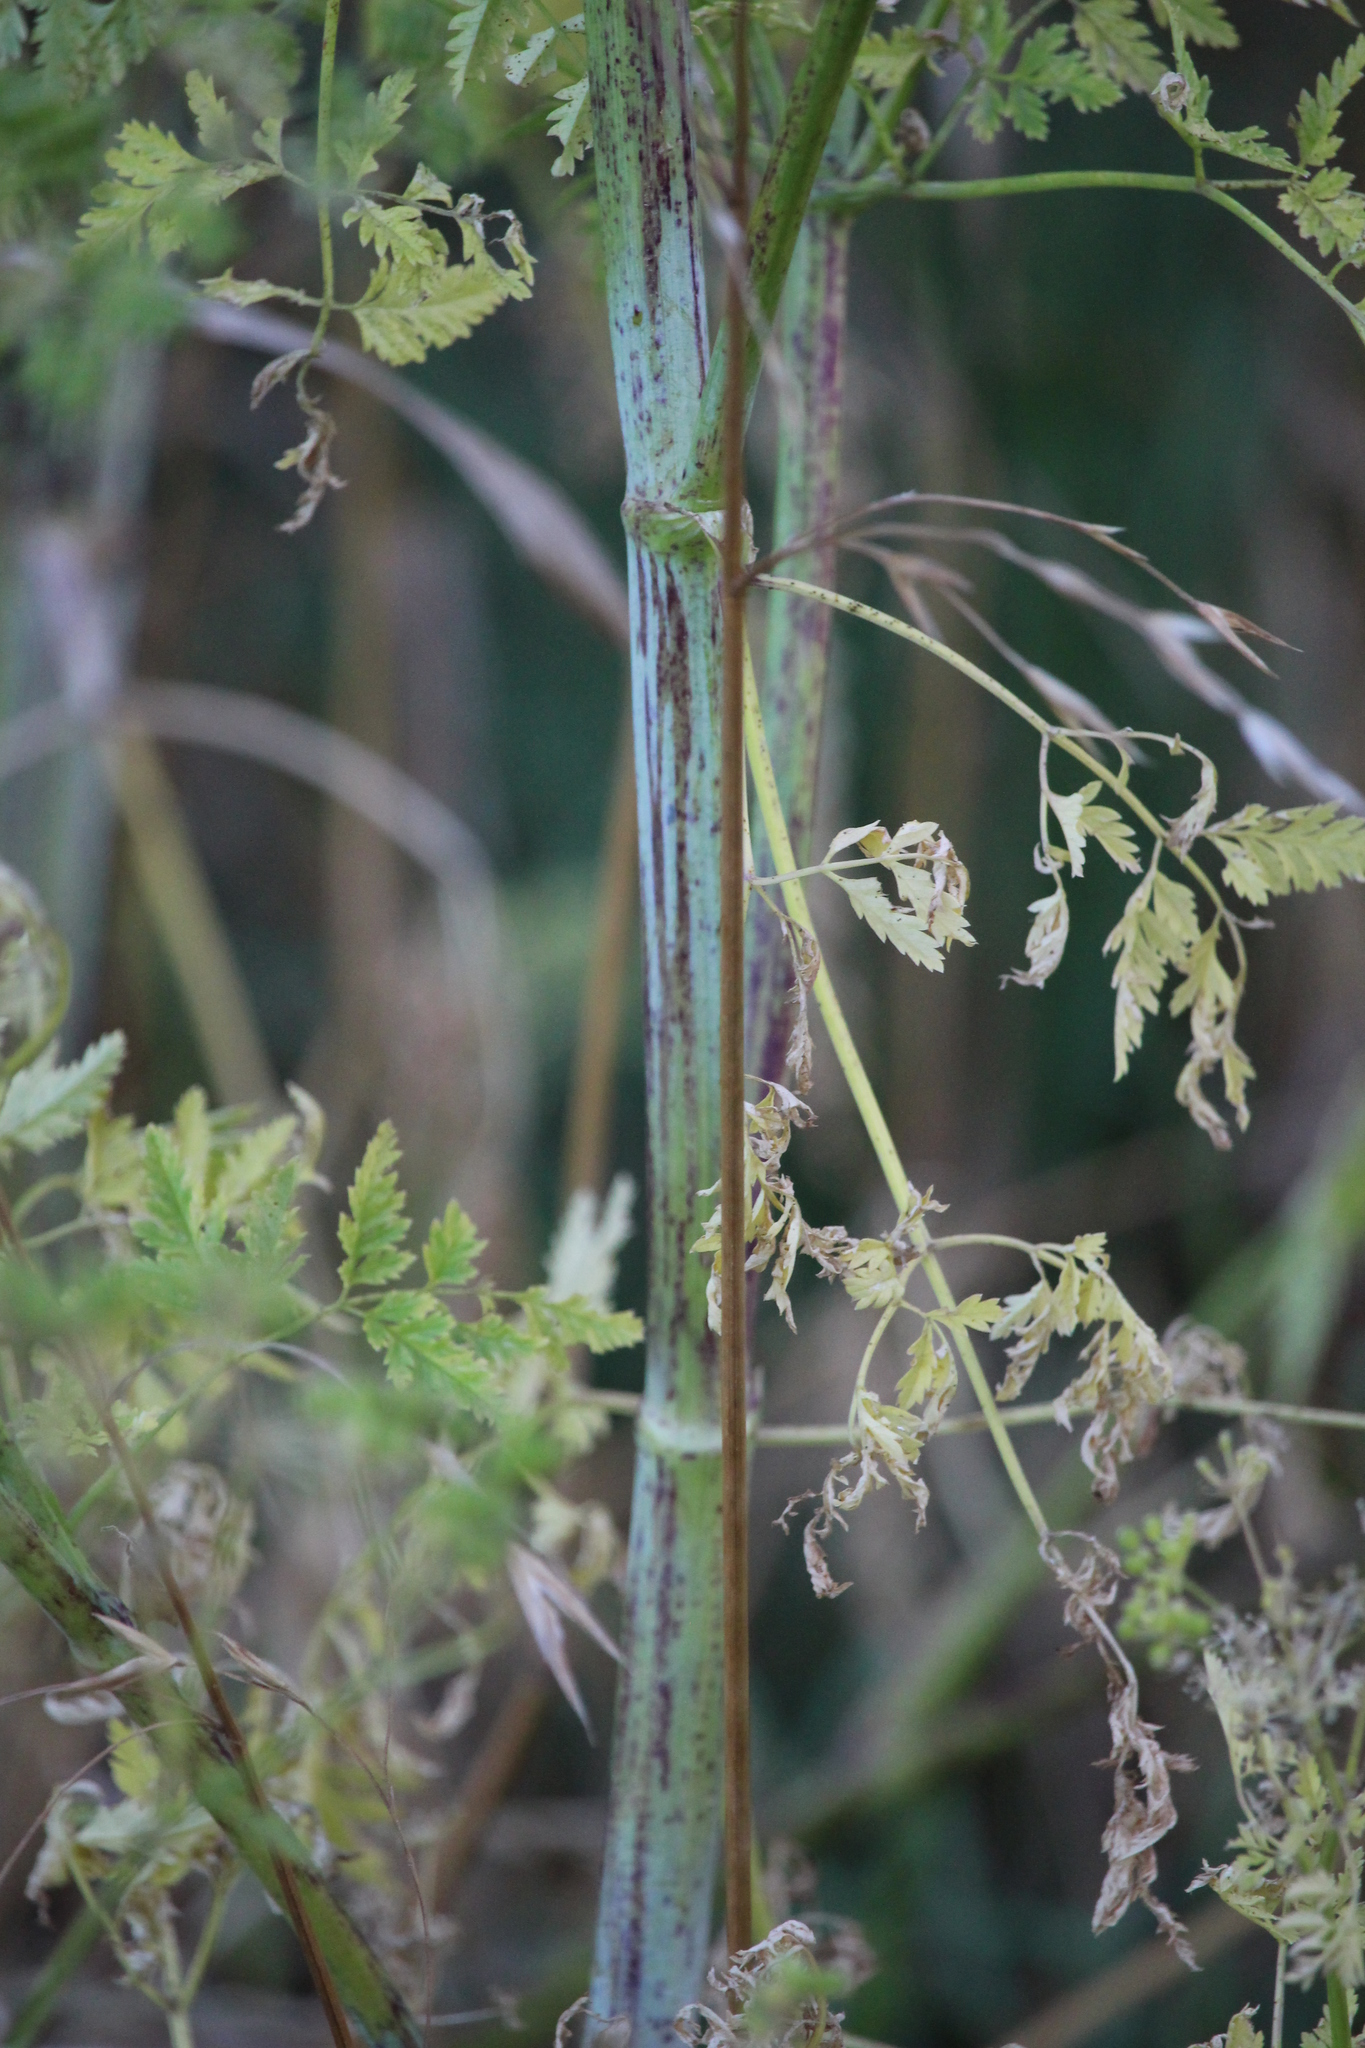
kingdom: Plantae
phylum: Tracheophyta
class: Magnoliopsida
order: Apiales
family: Apiaceae
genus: Conium
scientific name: Conium maculatum
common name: Hemlock
